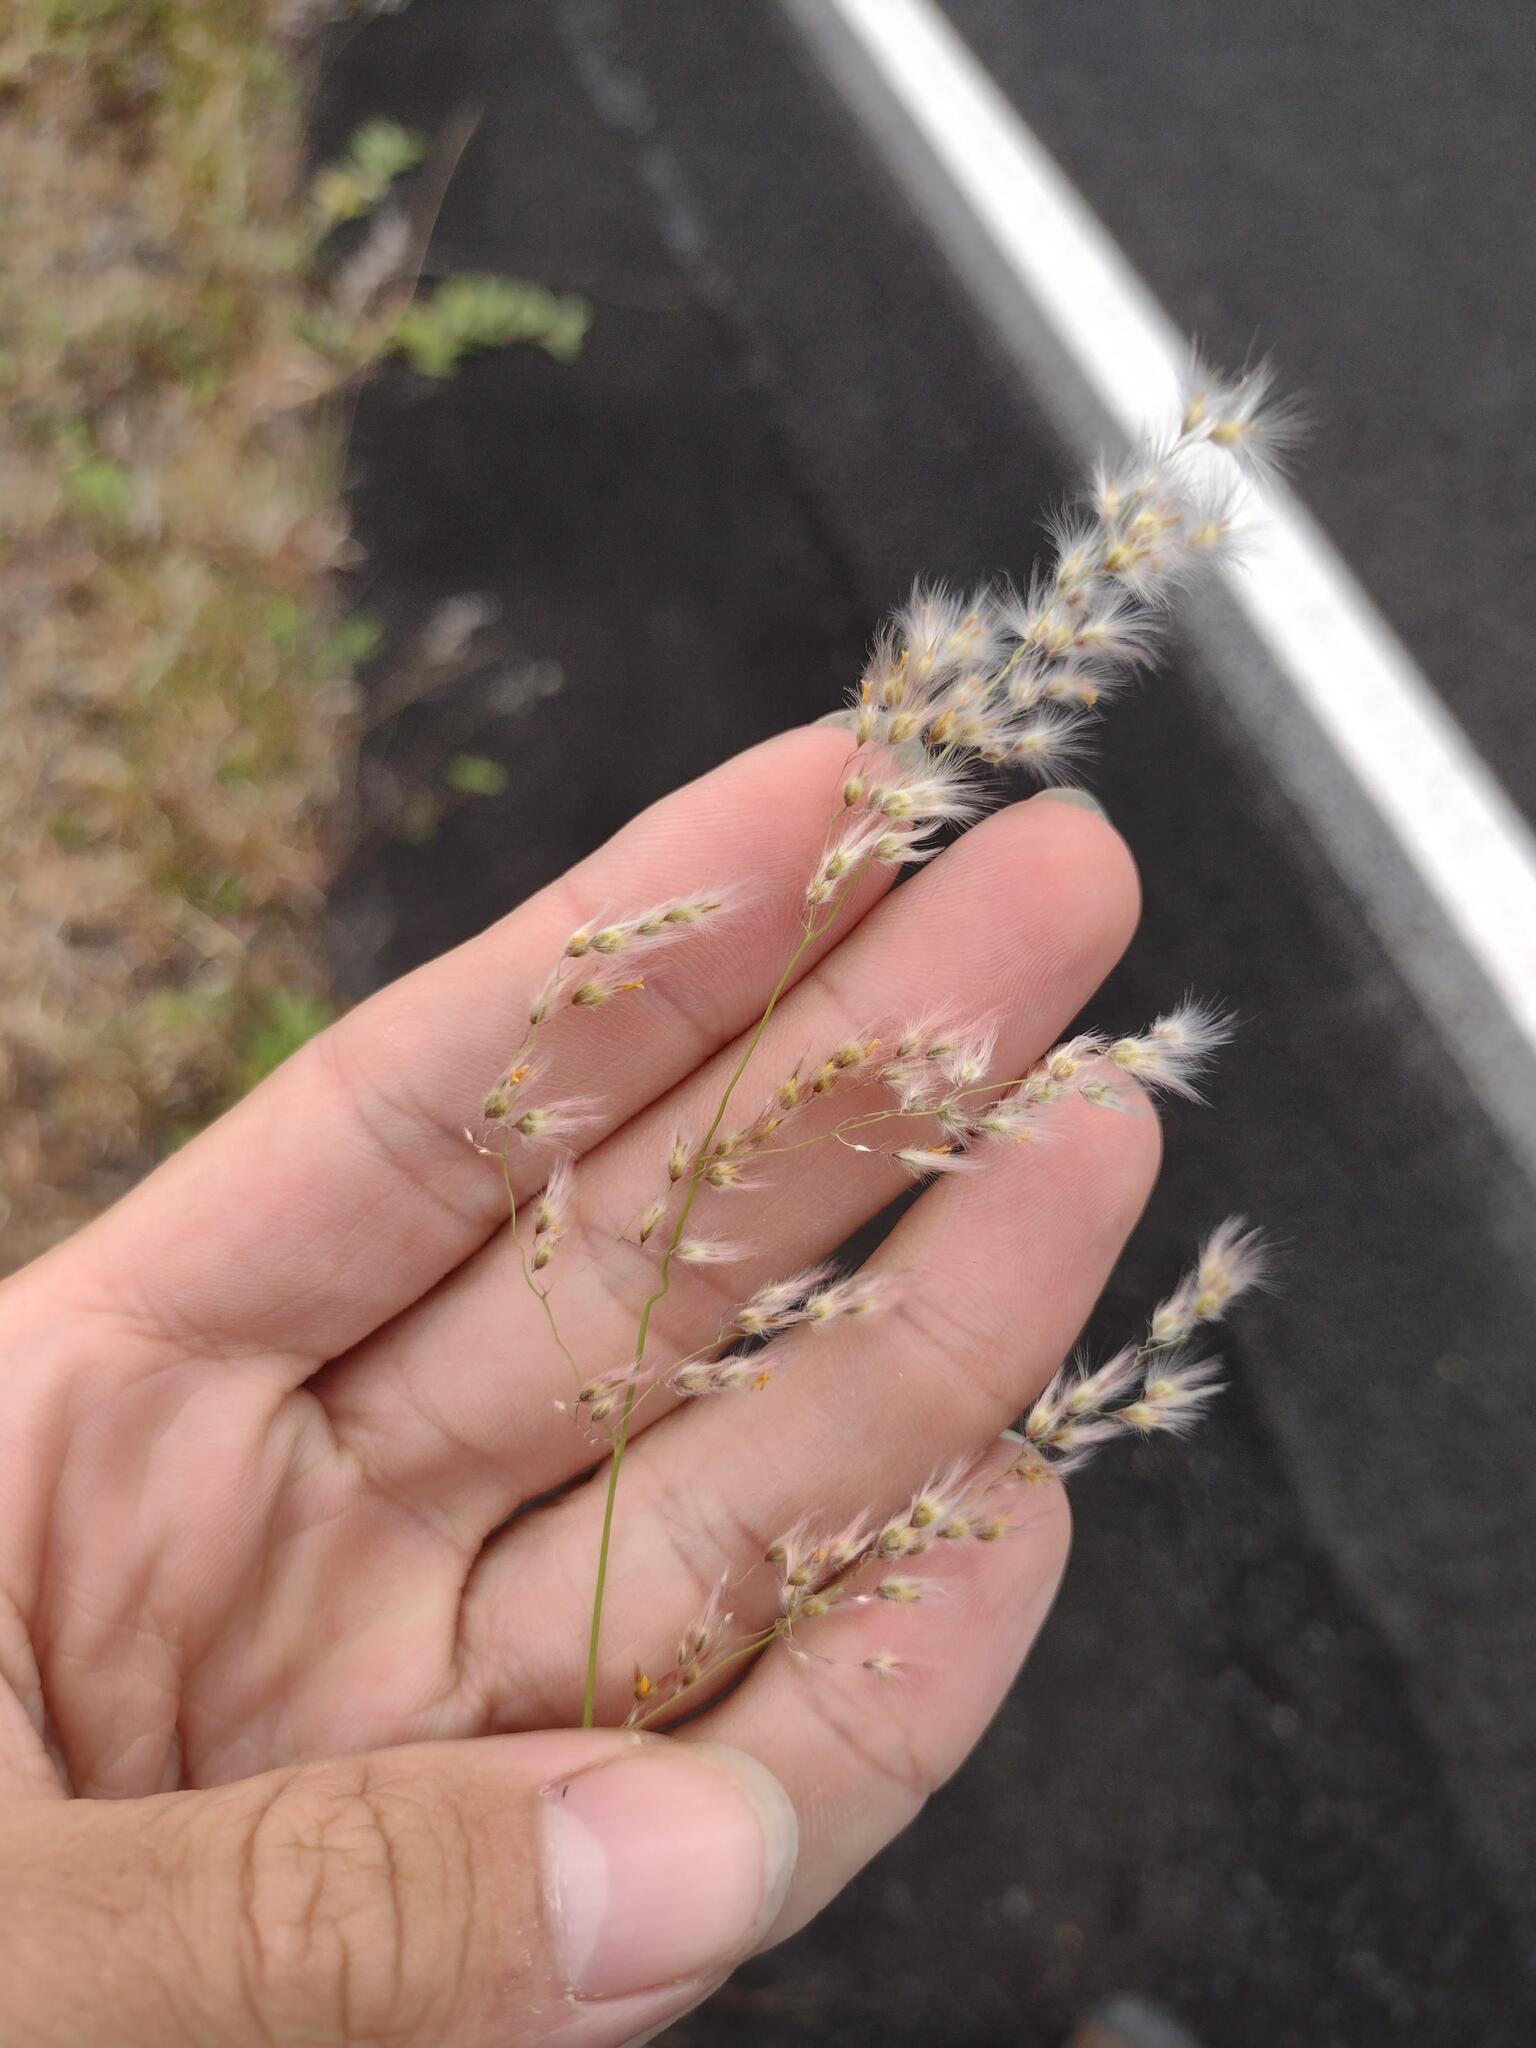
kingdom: Plantae
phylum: Tracheophyta
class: Liliopsida
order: Poales
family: Poaceae
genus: Melinis
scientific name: Melinis repens
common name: Rose natal grass
